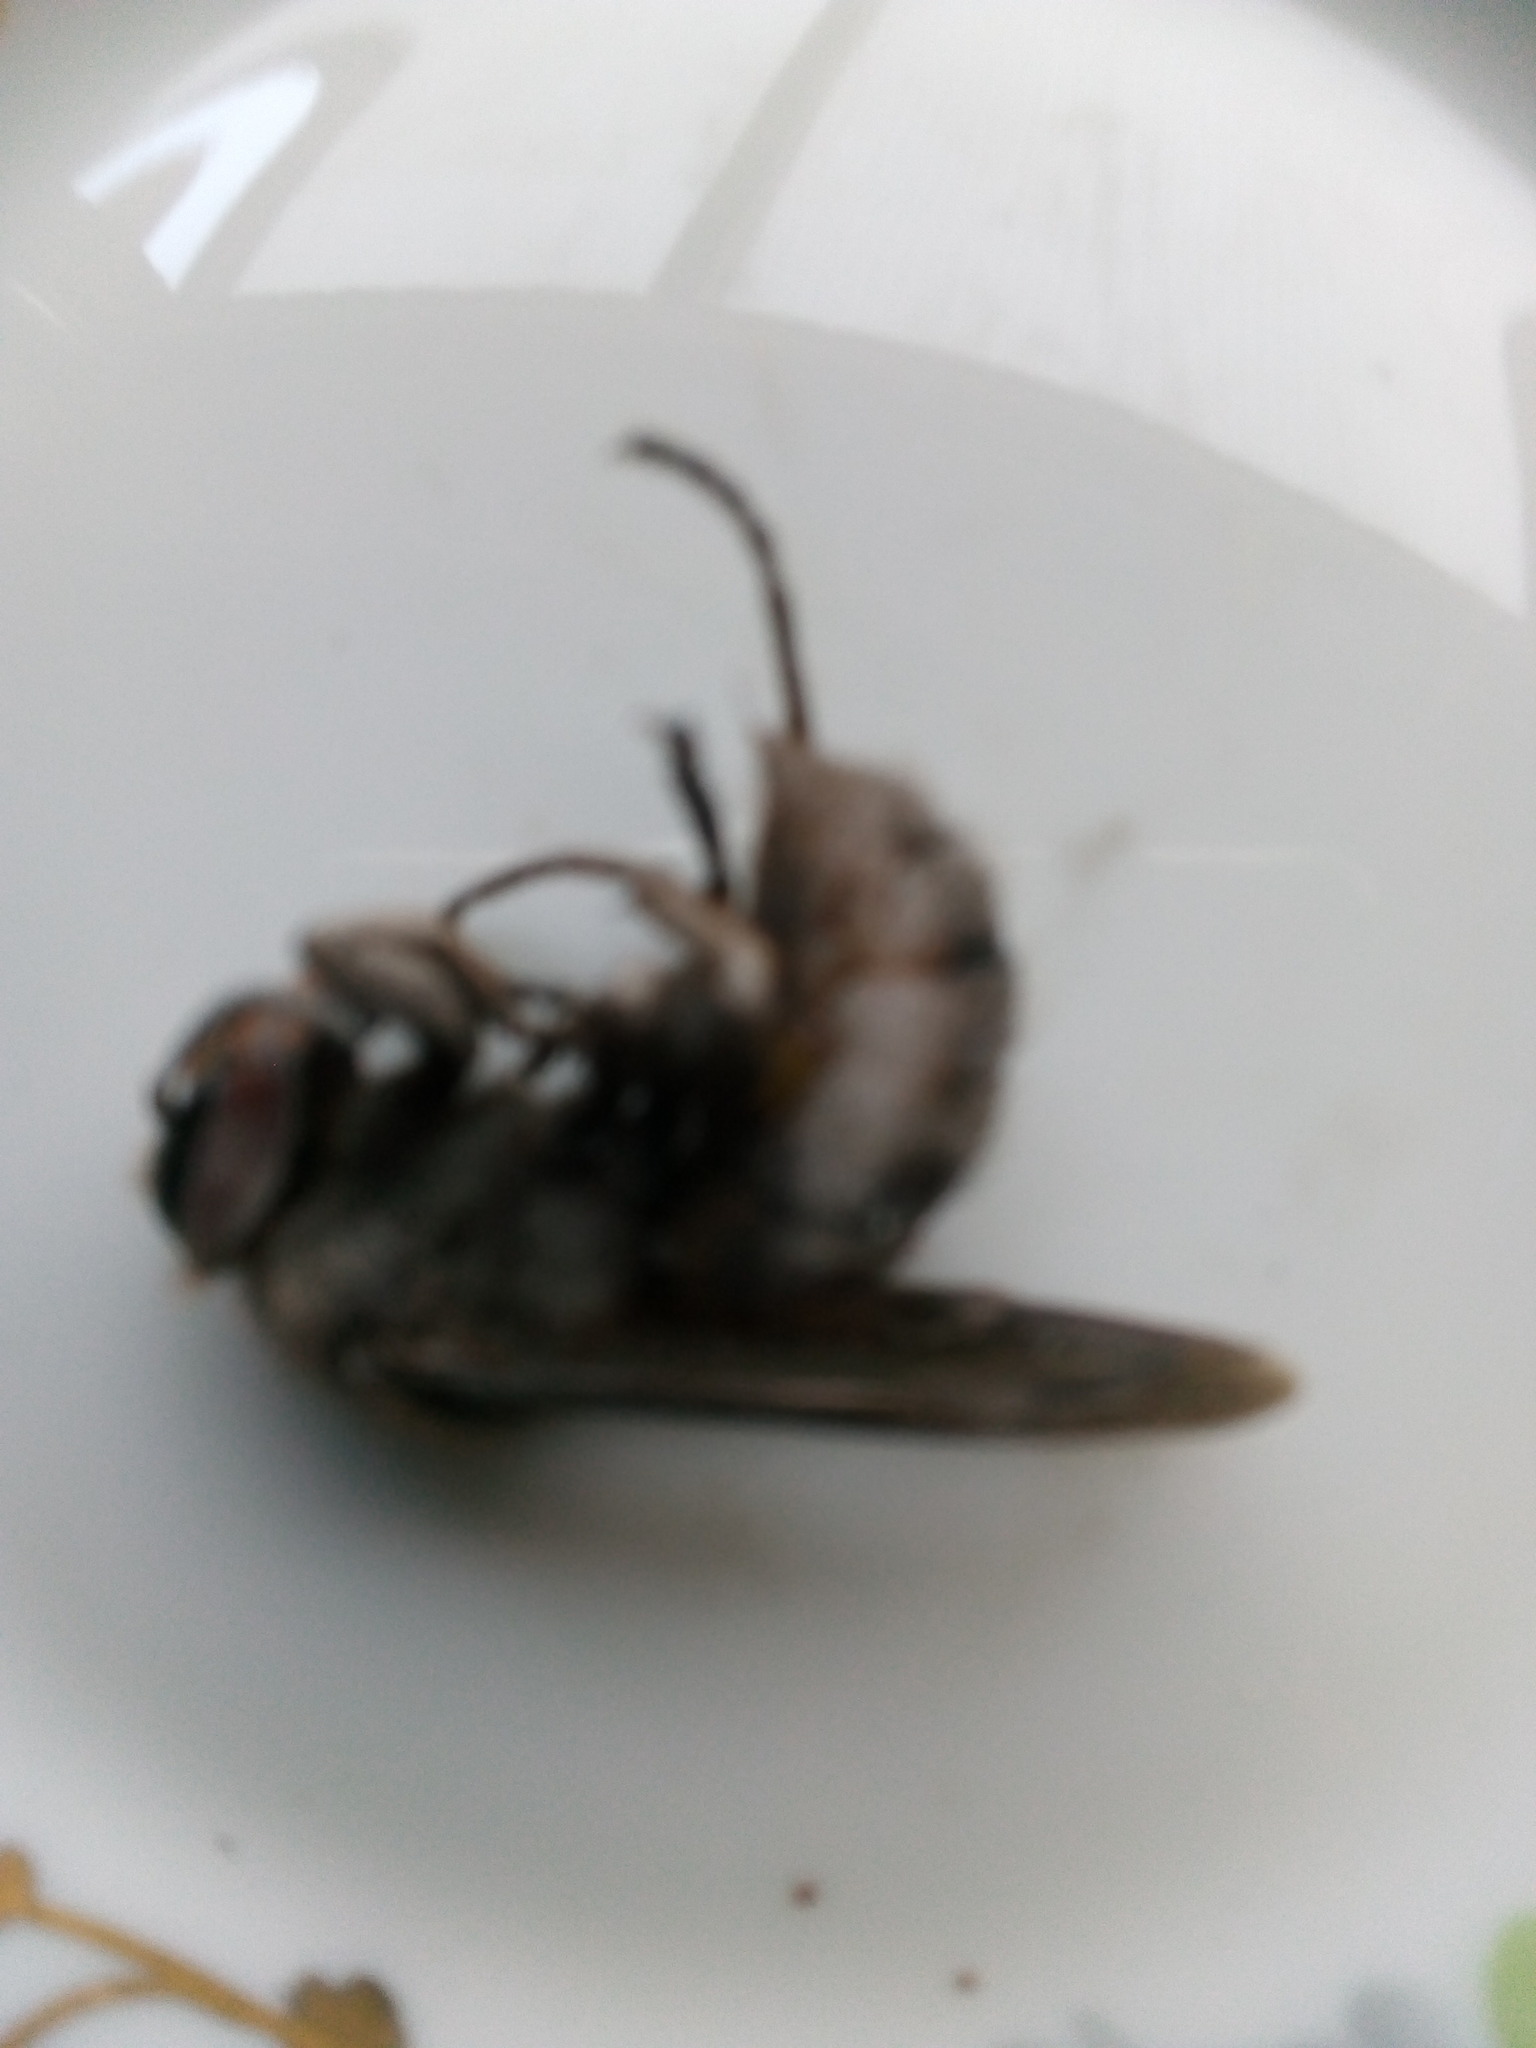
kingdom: Animalia
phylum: Arthropoda
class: Insecta
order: Hymenoptera
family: Vespidae
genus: Vespa
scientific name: Vespa crabro
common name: Hornet
